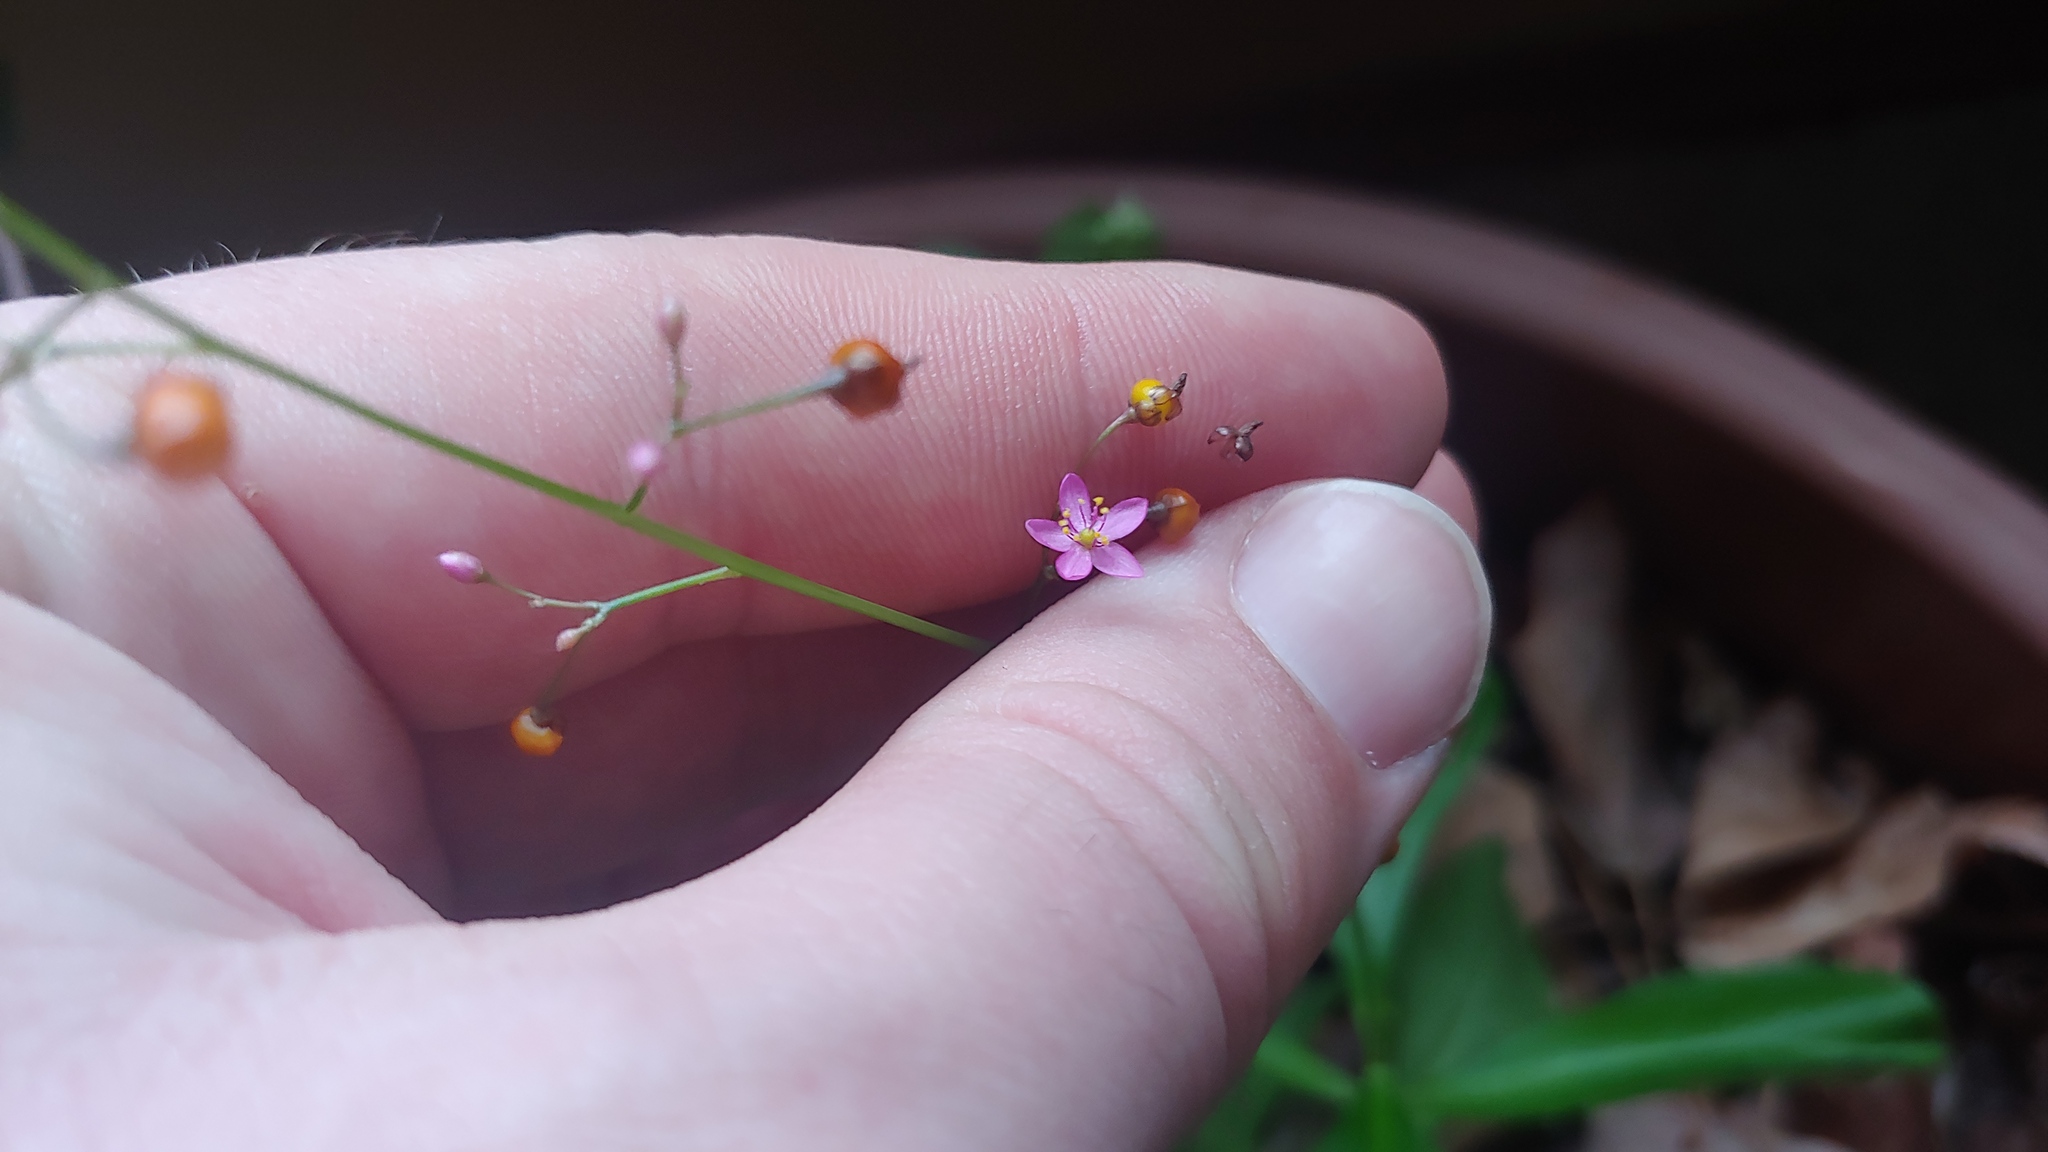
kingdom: Plantae
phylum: Tracheophyta
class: Magnoliopsida
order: Caryophyllales
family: Talinaceae
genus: Talinum
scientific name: Talinum paniculatum
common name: Jewels of opar
